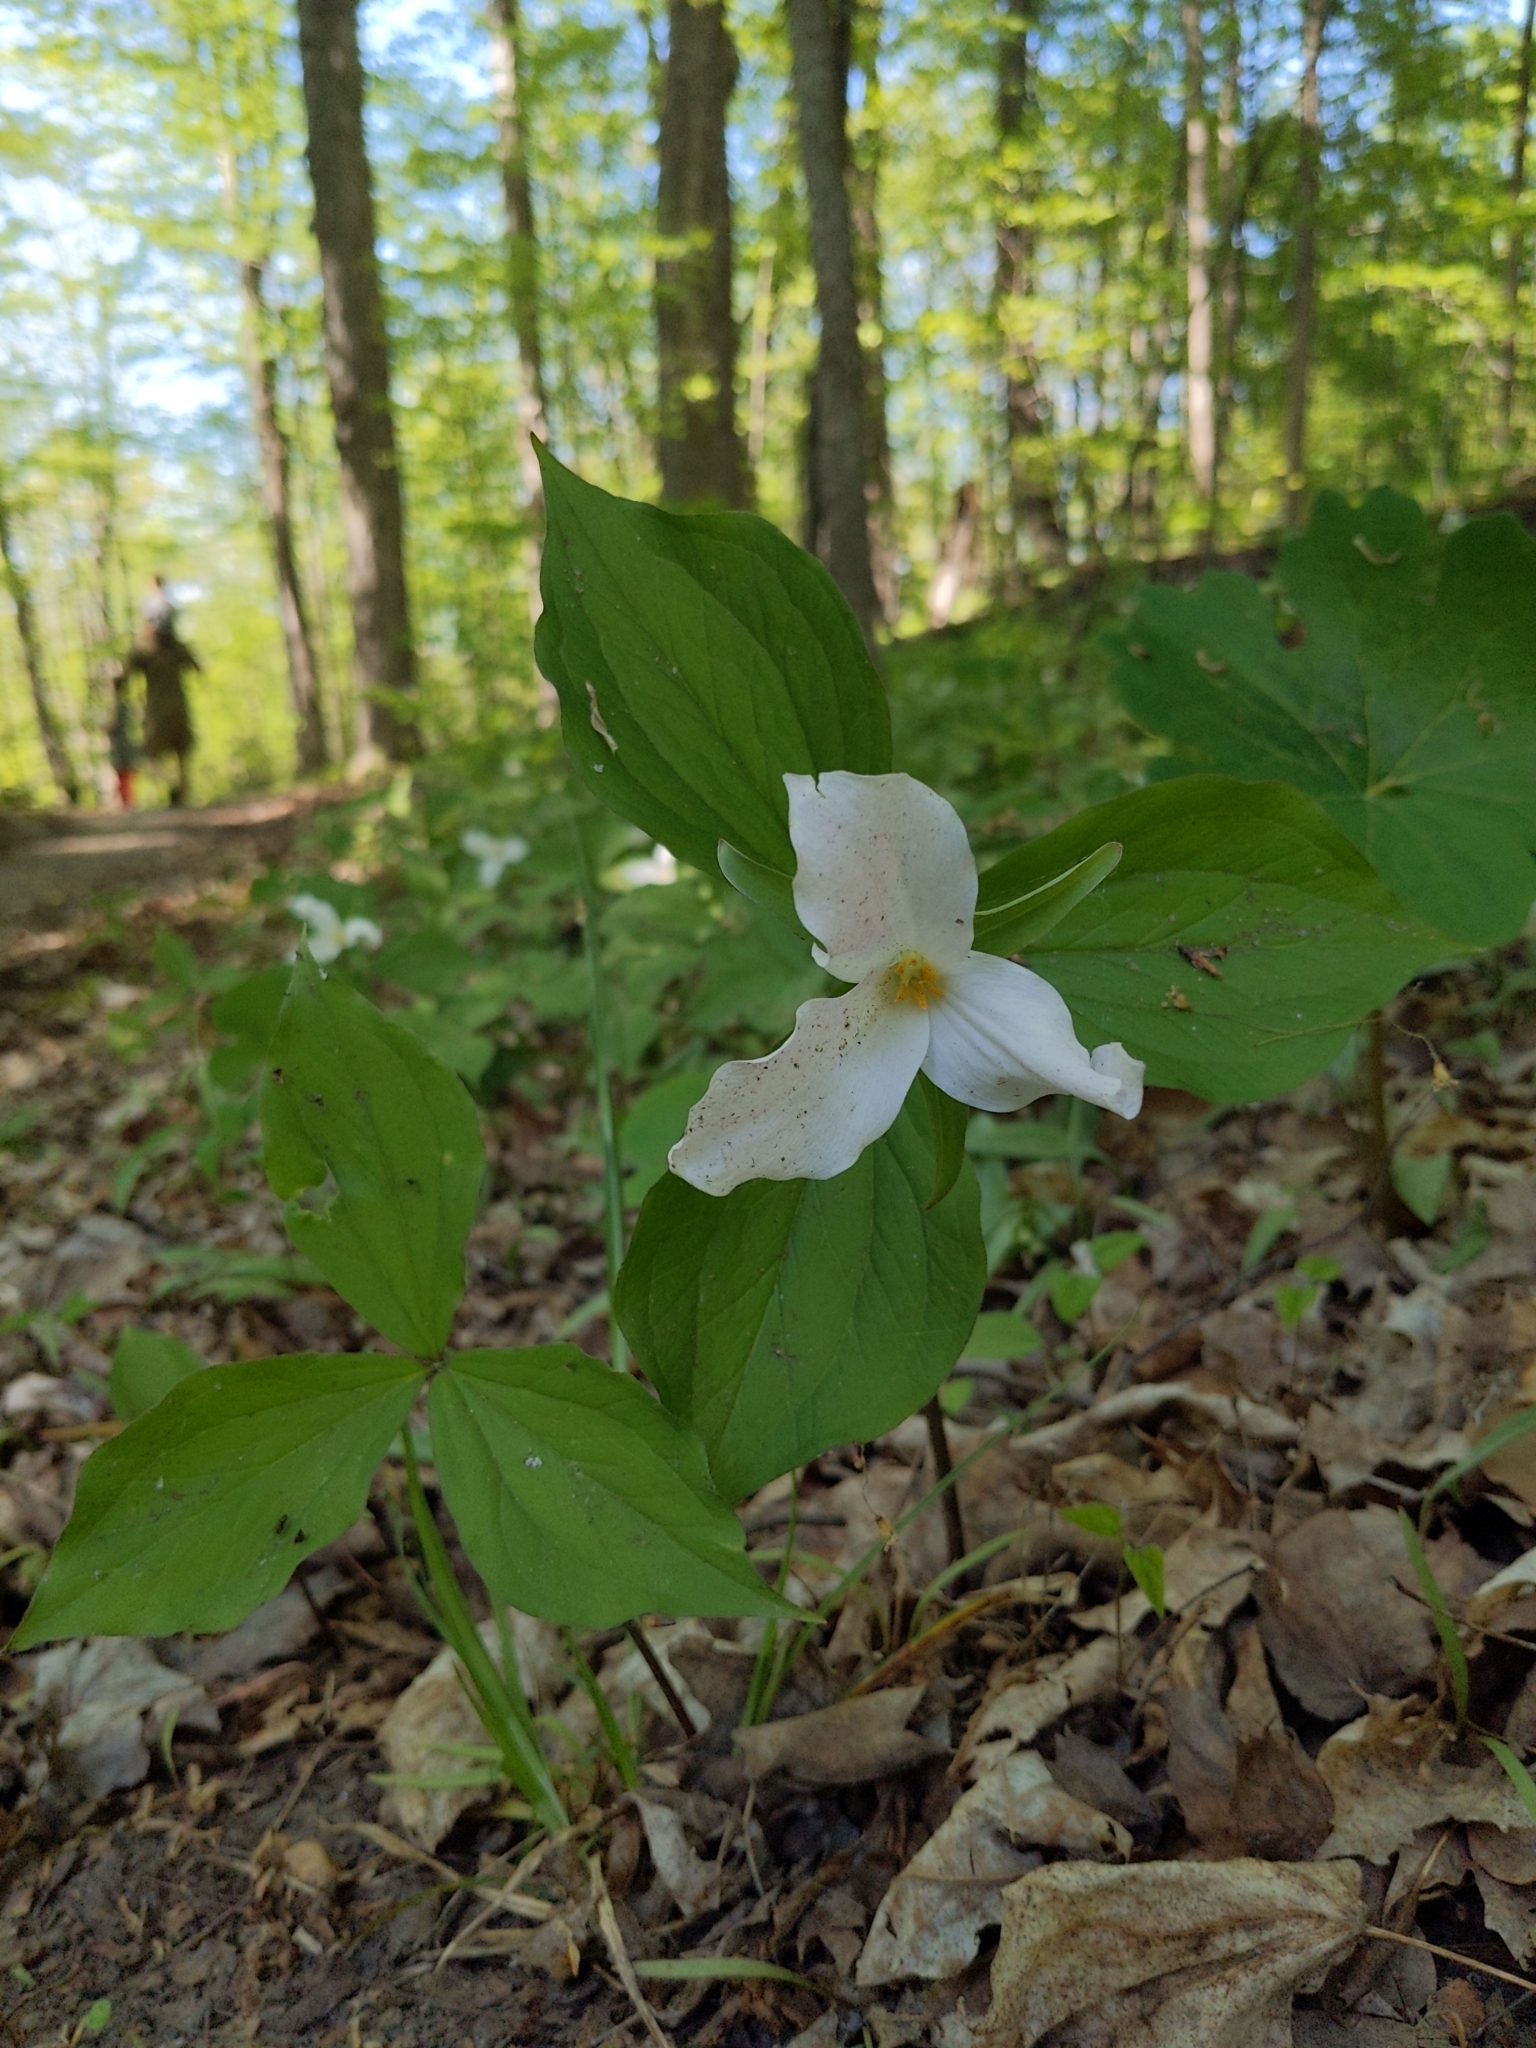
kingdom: Plantae
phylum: Tracheophyta
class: Liliopsida
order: Liliales
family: Melanthiaceae
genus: Trillium
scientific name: Trillium grandiflorum
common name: Great white trillium
